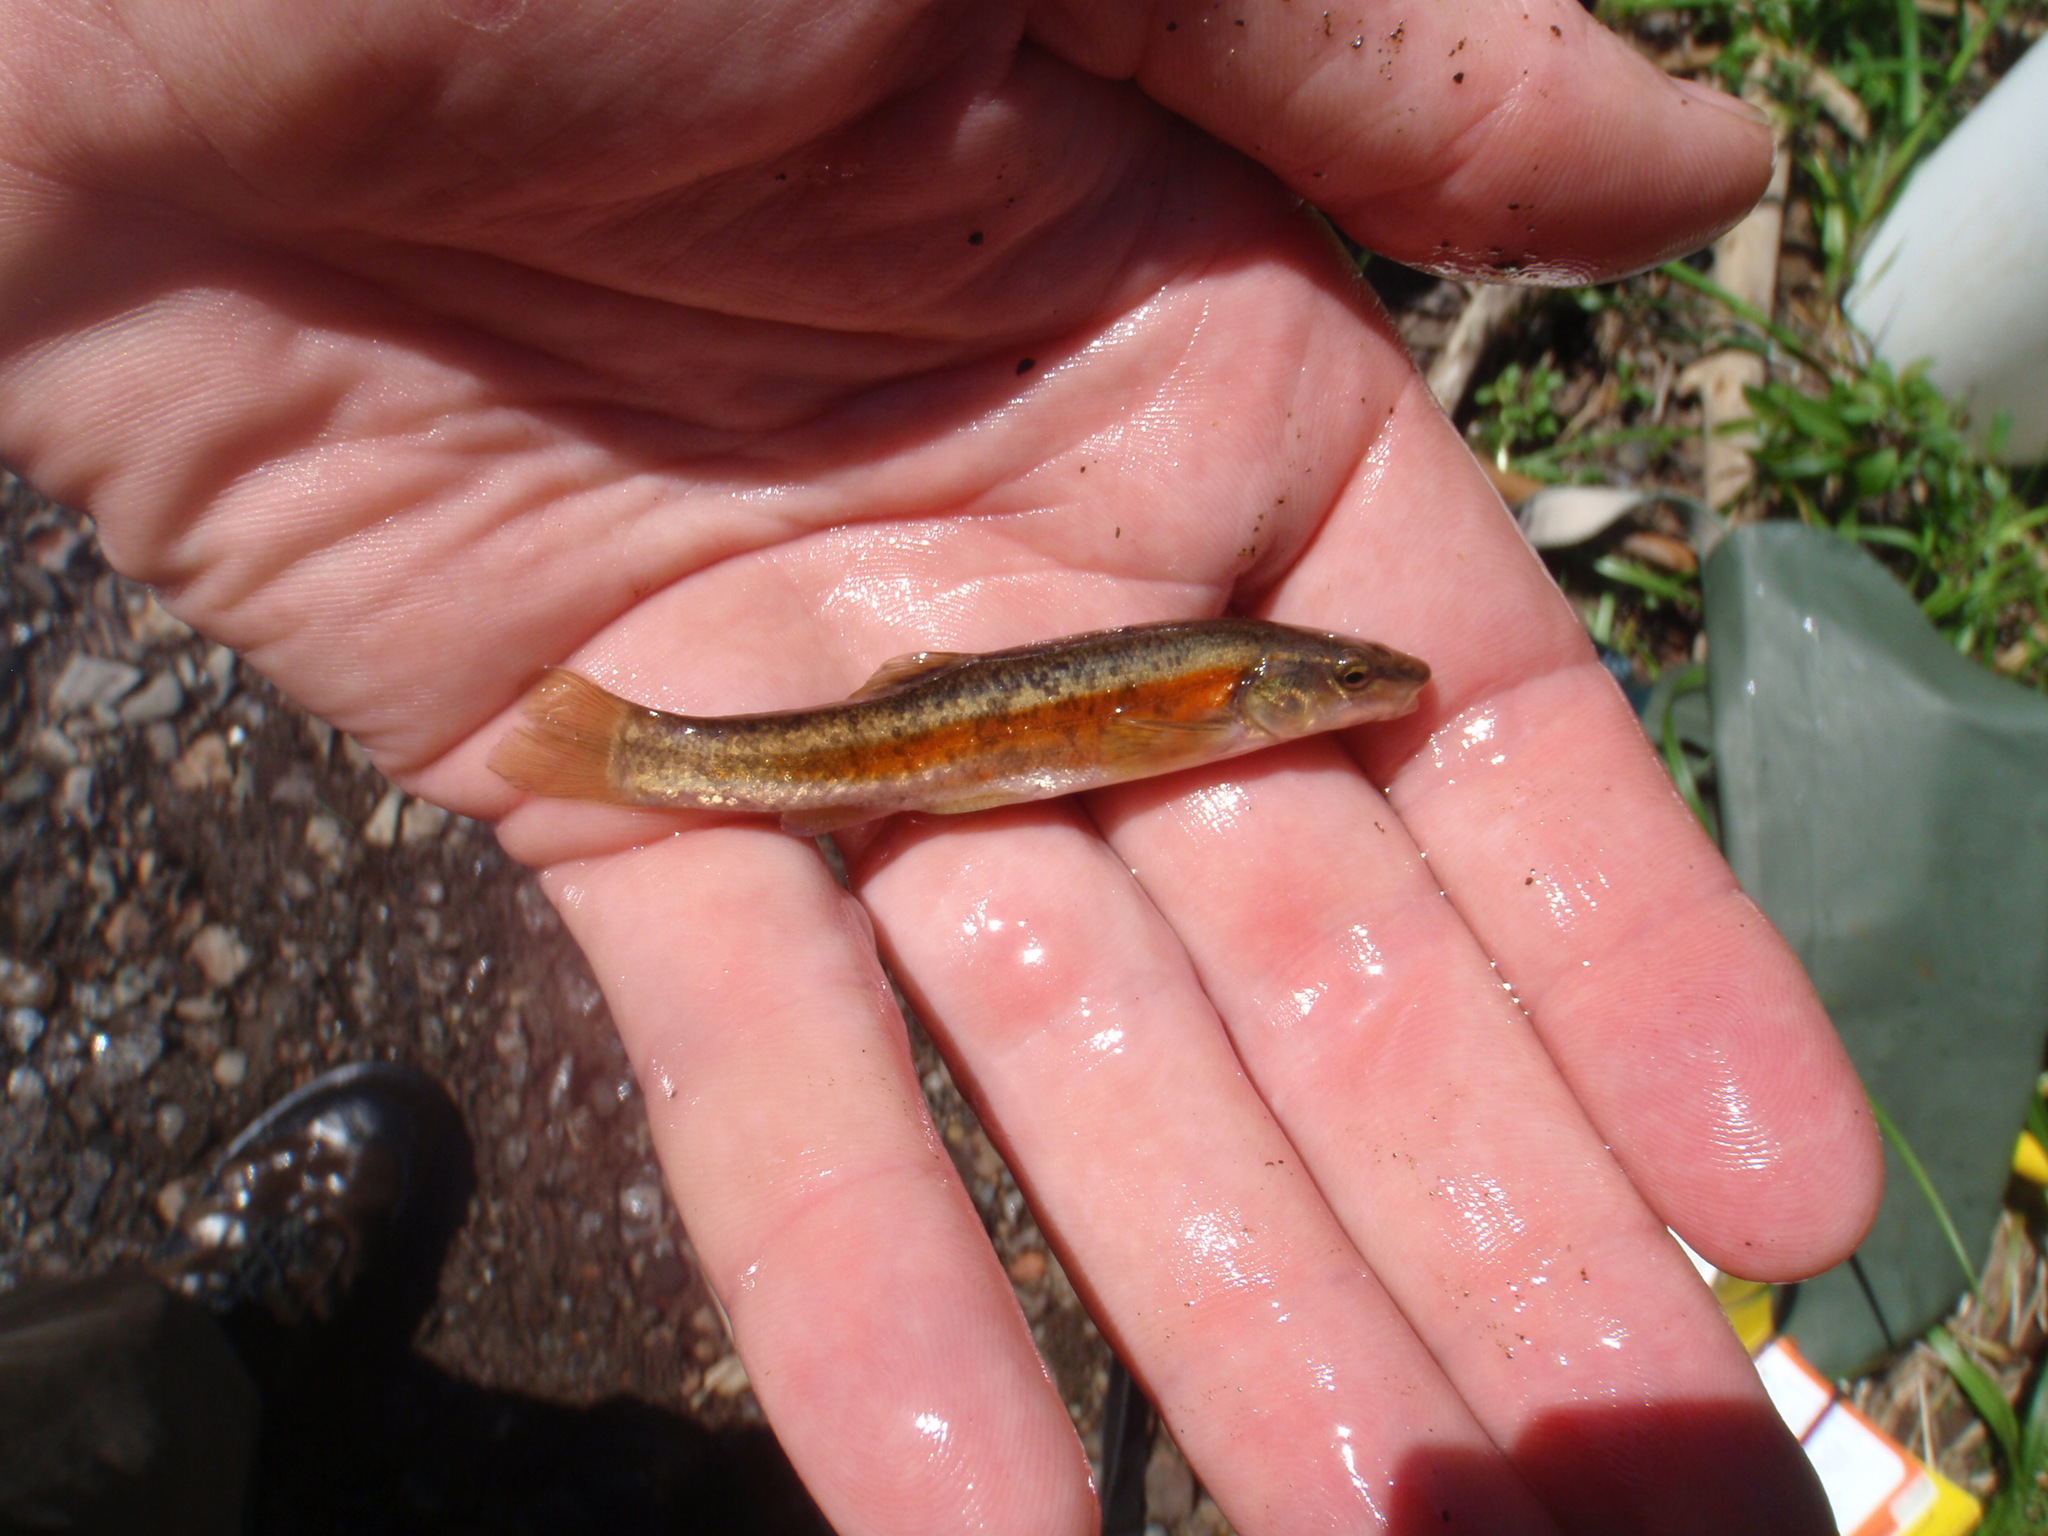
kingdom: Animalia
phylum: Chordata
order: Cypriniformes
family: Cyprinidae
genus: Rhinichthys
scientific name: Rhinichthys obtusus
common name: Western blacknose dace
